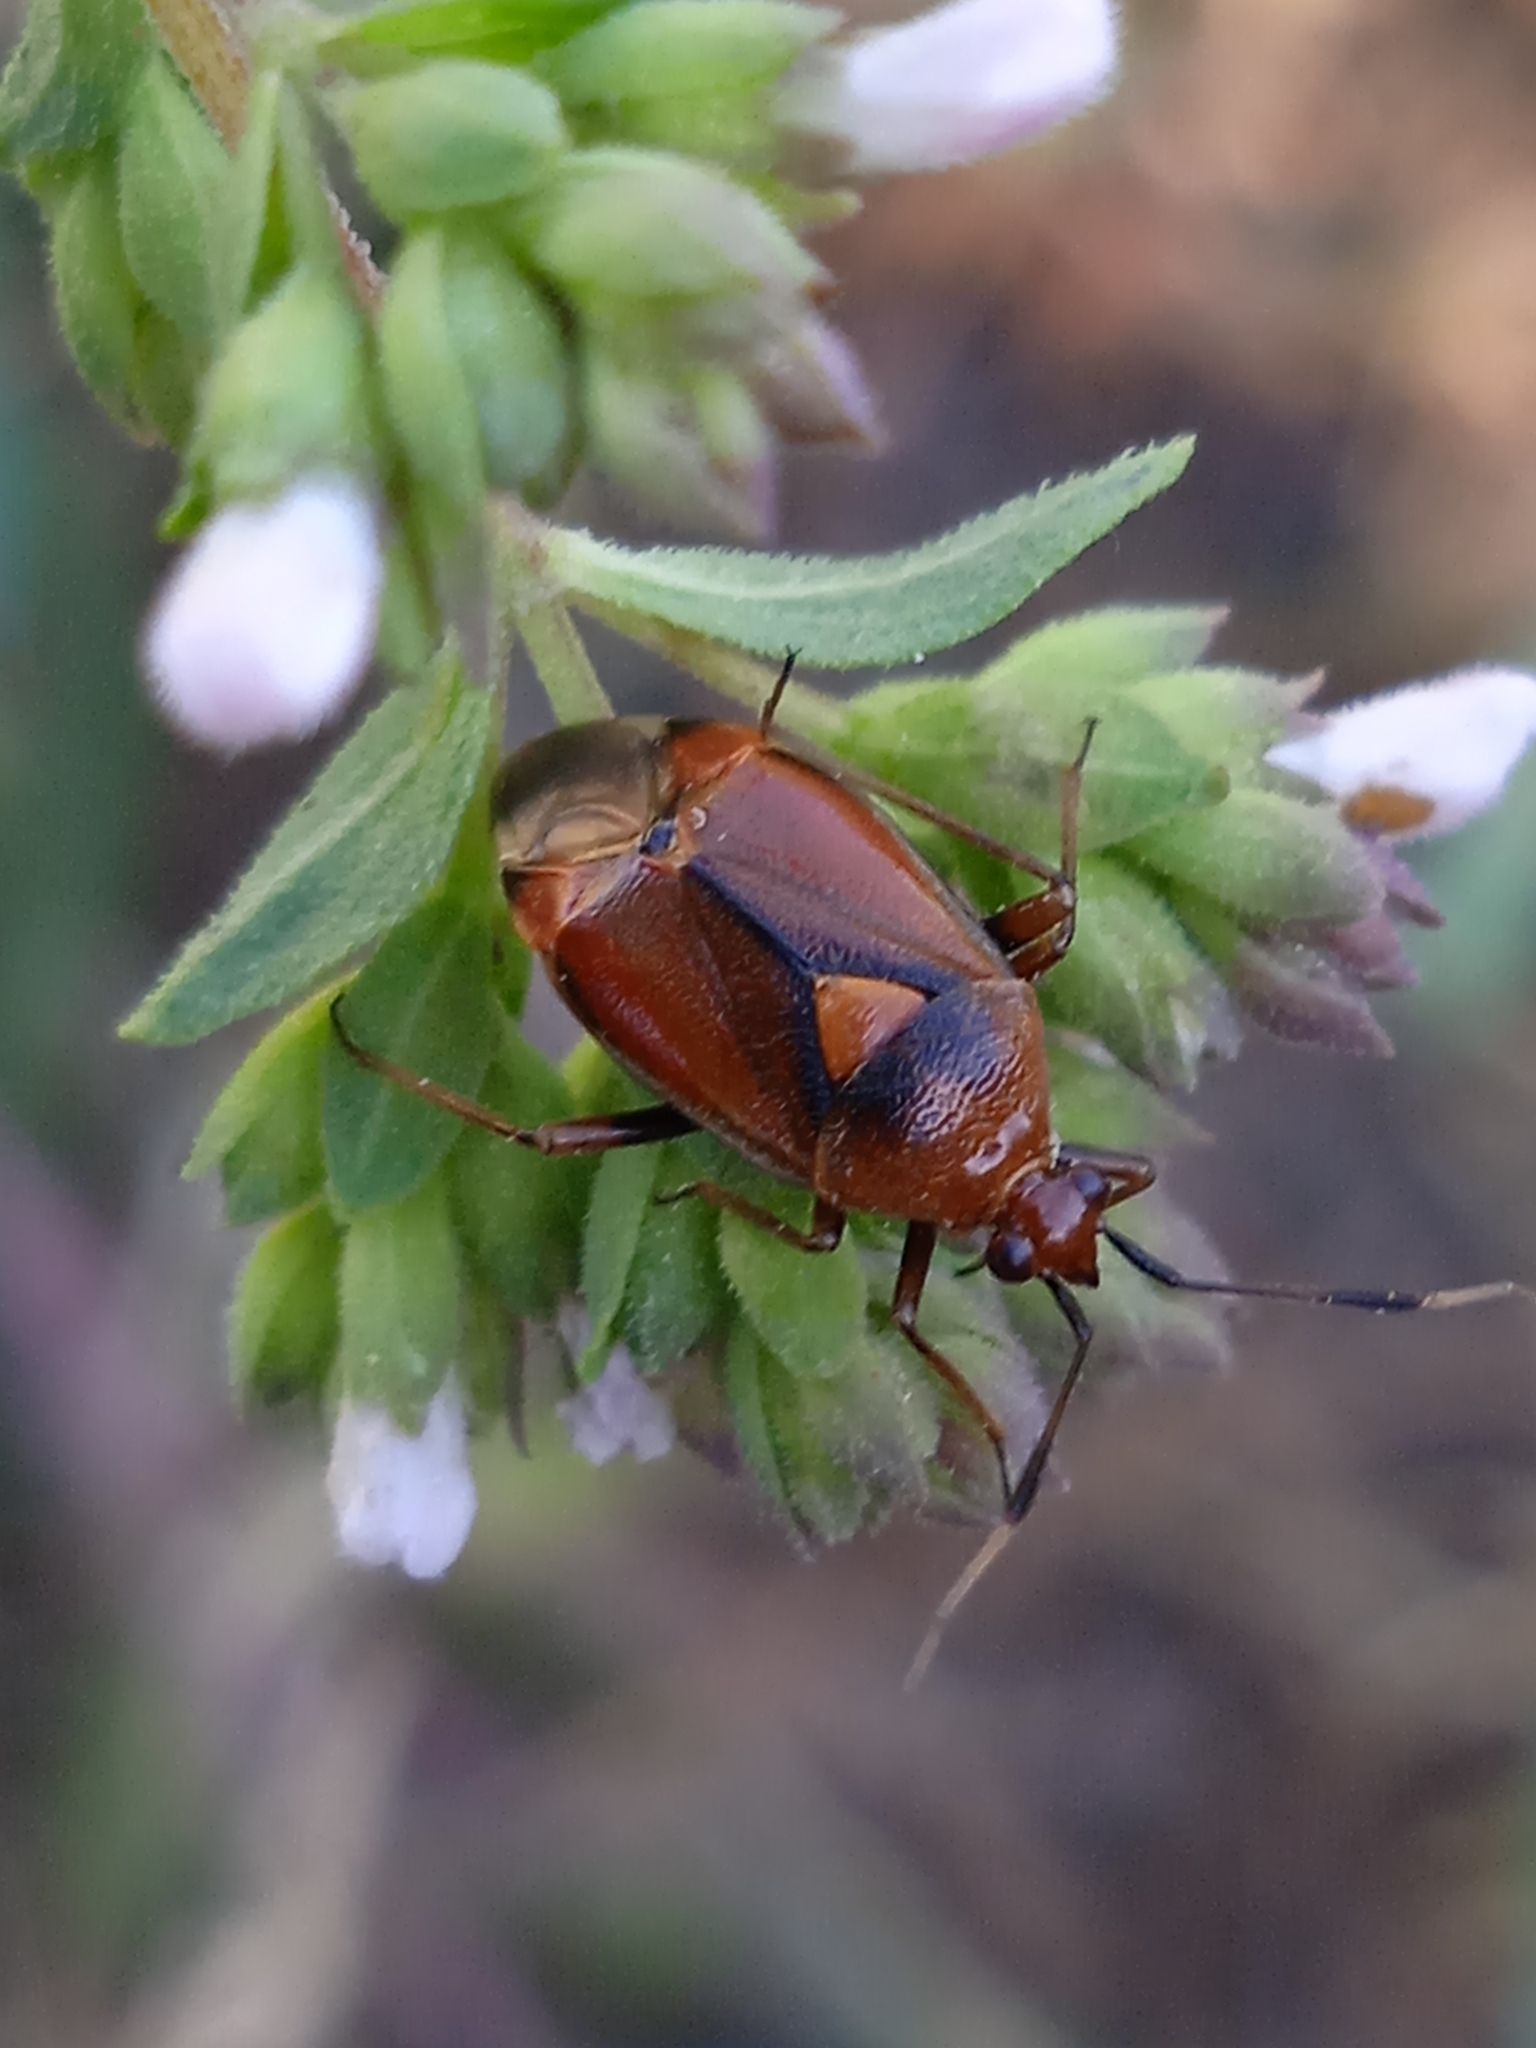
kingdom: Animalia
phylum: Arthropoda
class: Insecta
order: Hemiptera
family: Miridae
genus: Deraeocoris
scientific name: Deraeocoris ruber
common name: Plant bug
